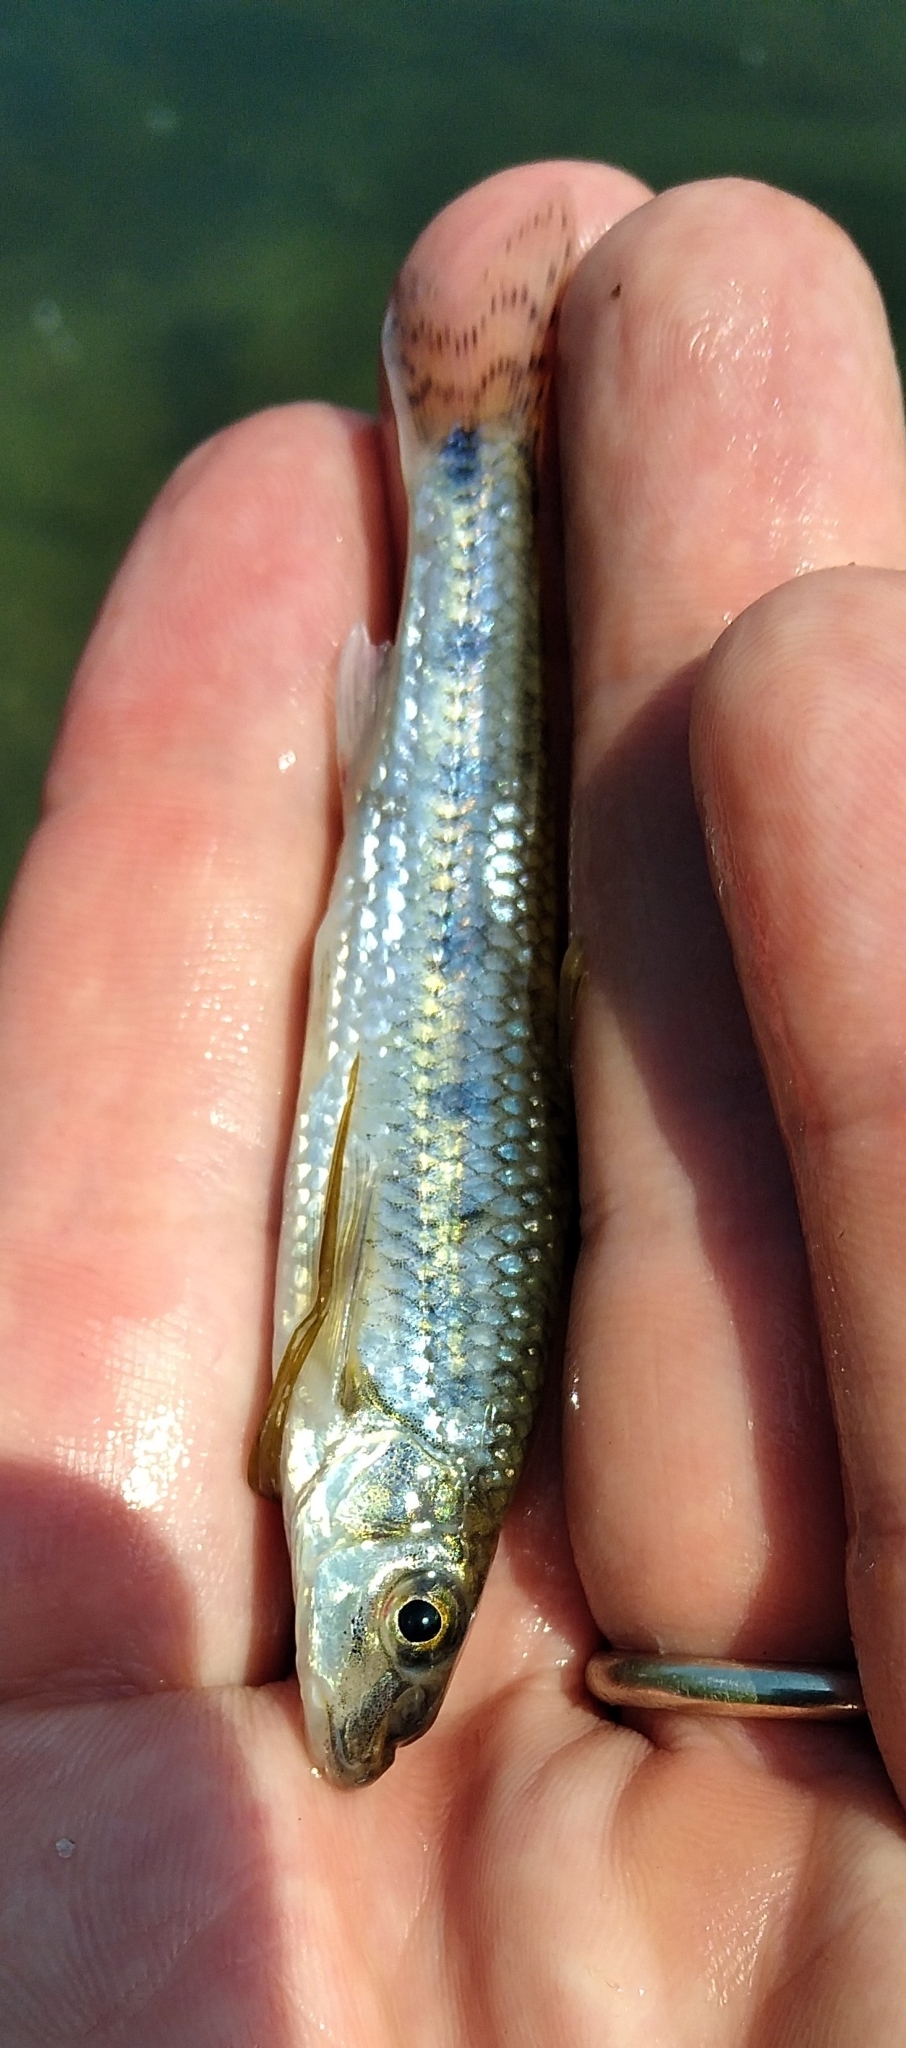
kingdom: Animalia
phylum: Chordata
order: Cypriniformes
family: Cyprinidae
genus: Gobio
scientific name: Gobio gobio
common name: Gudgeon
